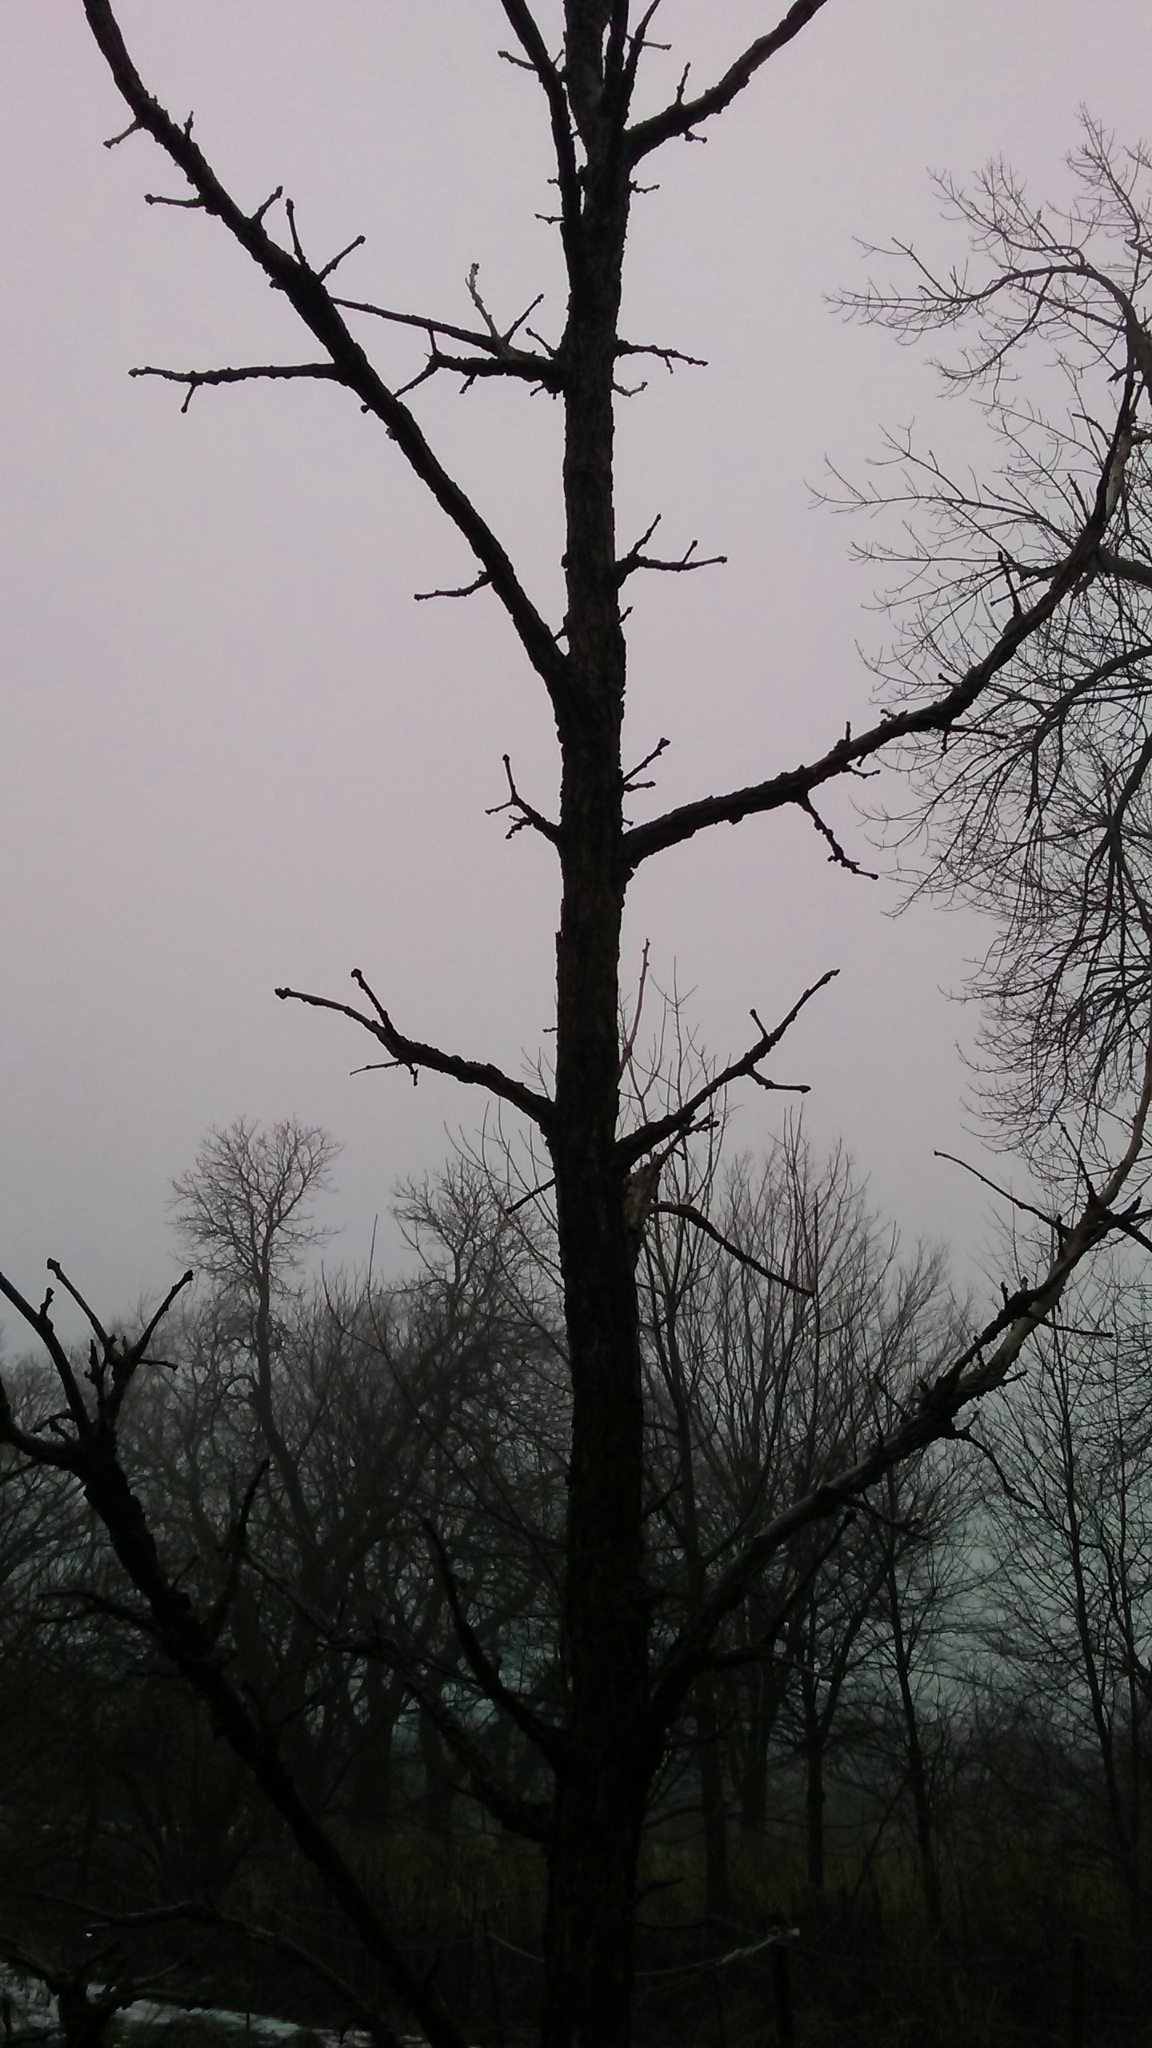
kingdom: Plantae
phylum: Tracheophyta
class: Magnoliopsida
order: Fagales
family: Fagaceae
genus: Quercus
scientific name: Quercus macrocarpa
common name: Bur oak
